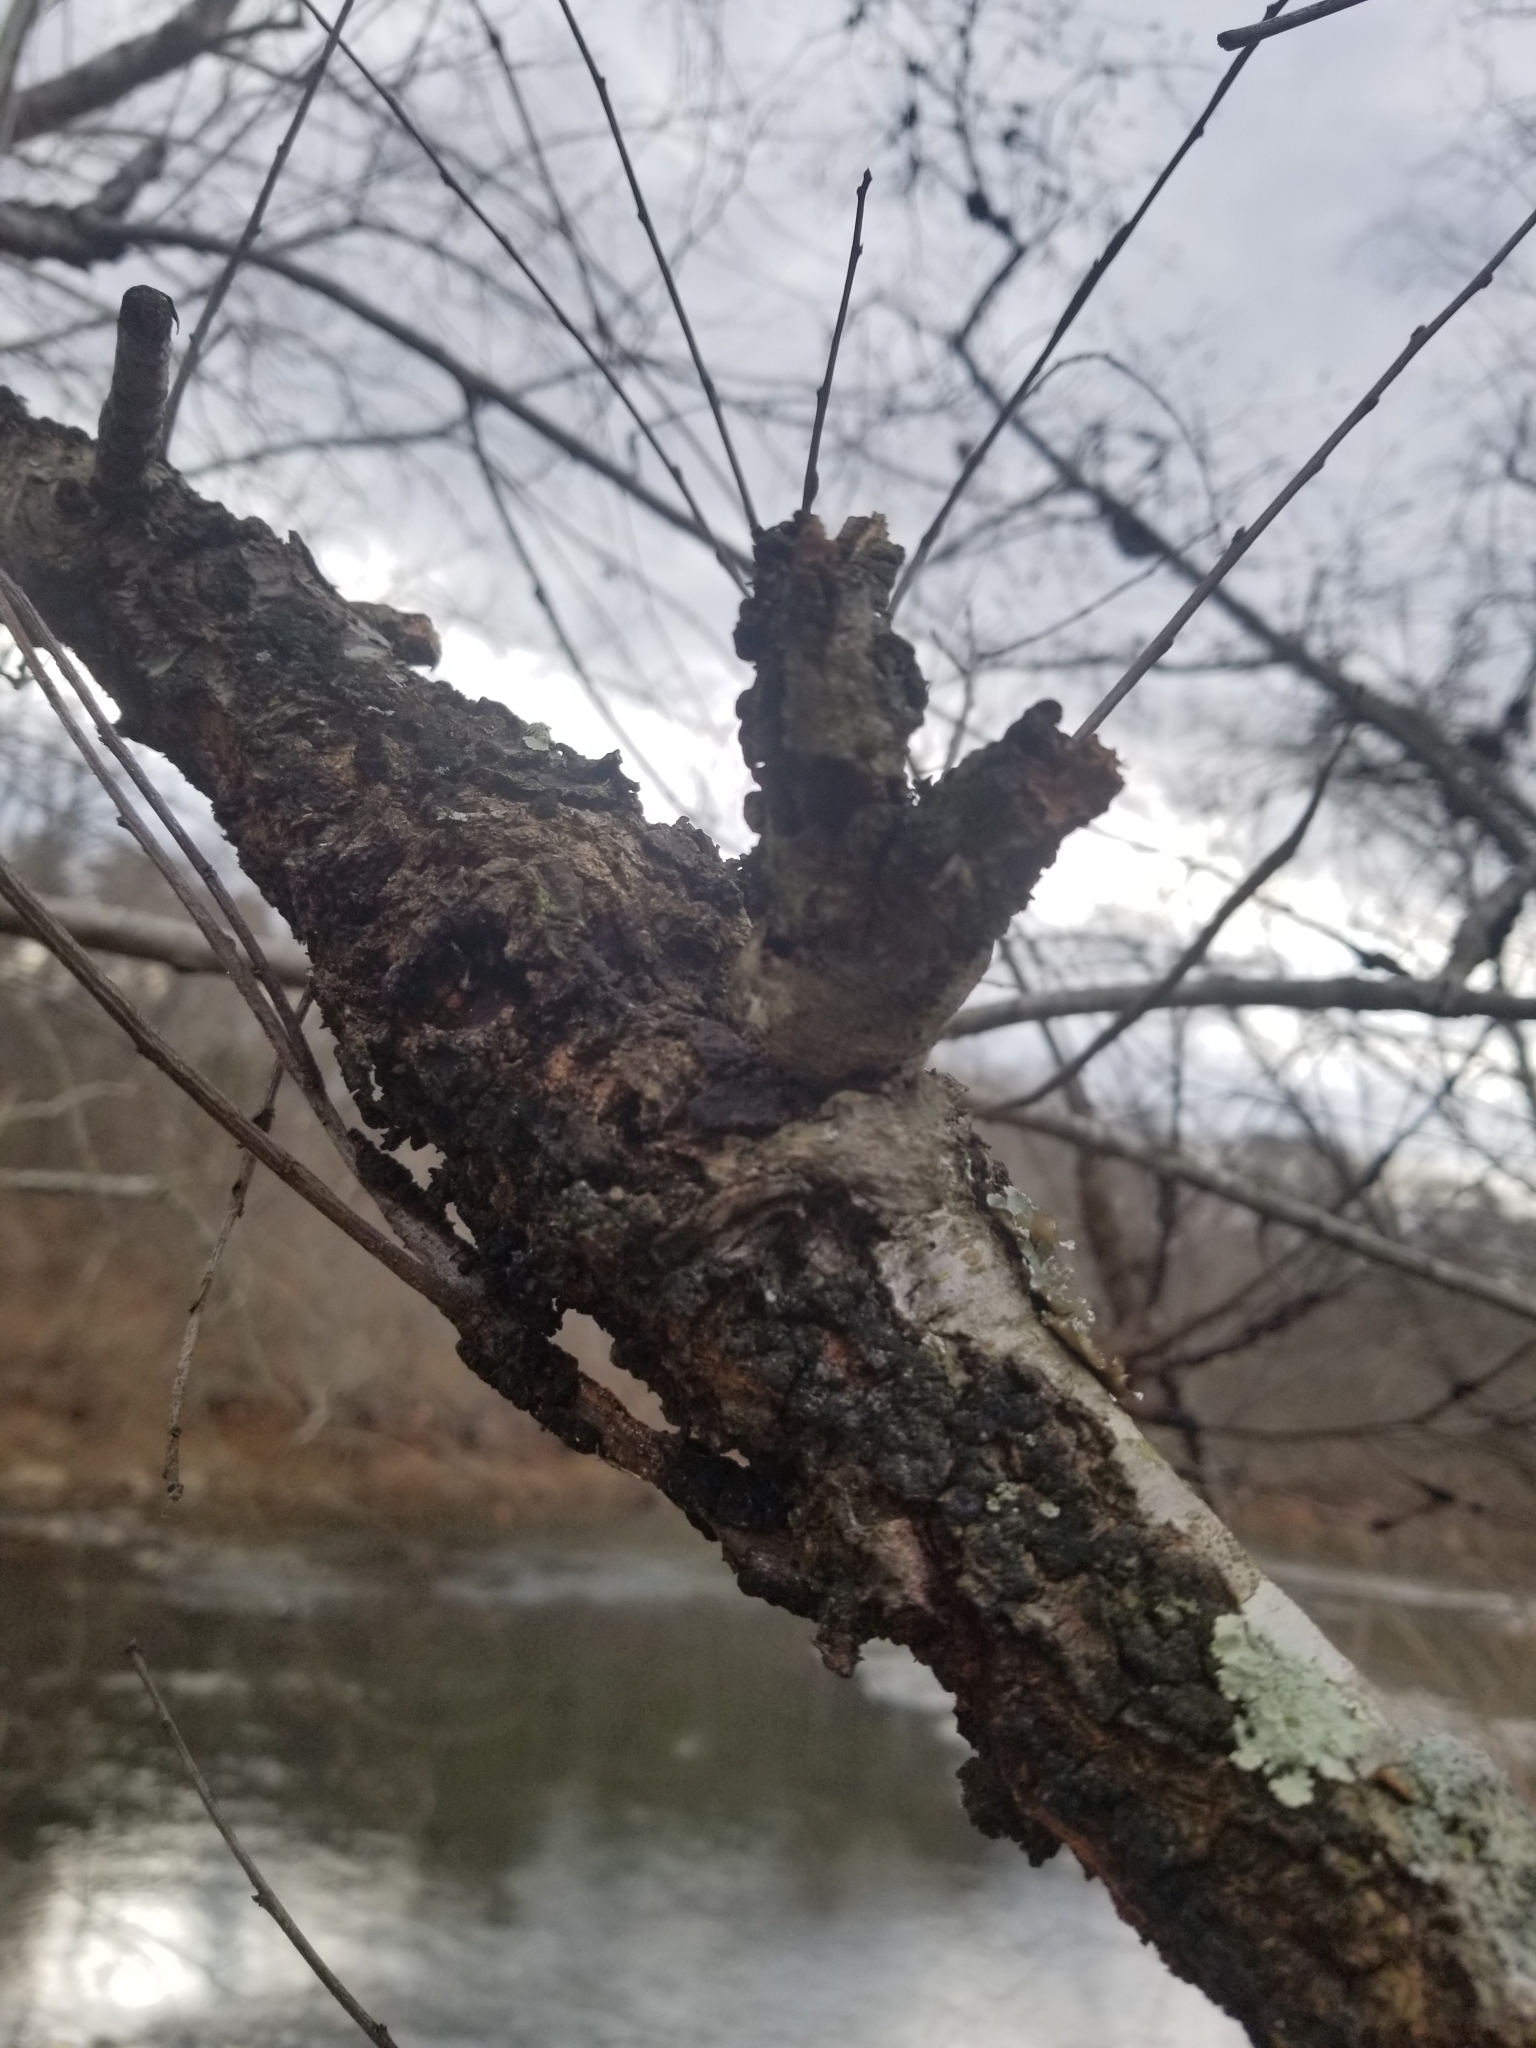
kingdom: Fungi
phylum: Ascomycota
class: Dothideomycetes
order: Venturiales
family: Venturiaceae
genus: Apiosporina
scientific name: Apiosporina morbosa
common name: Black knot
